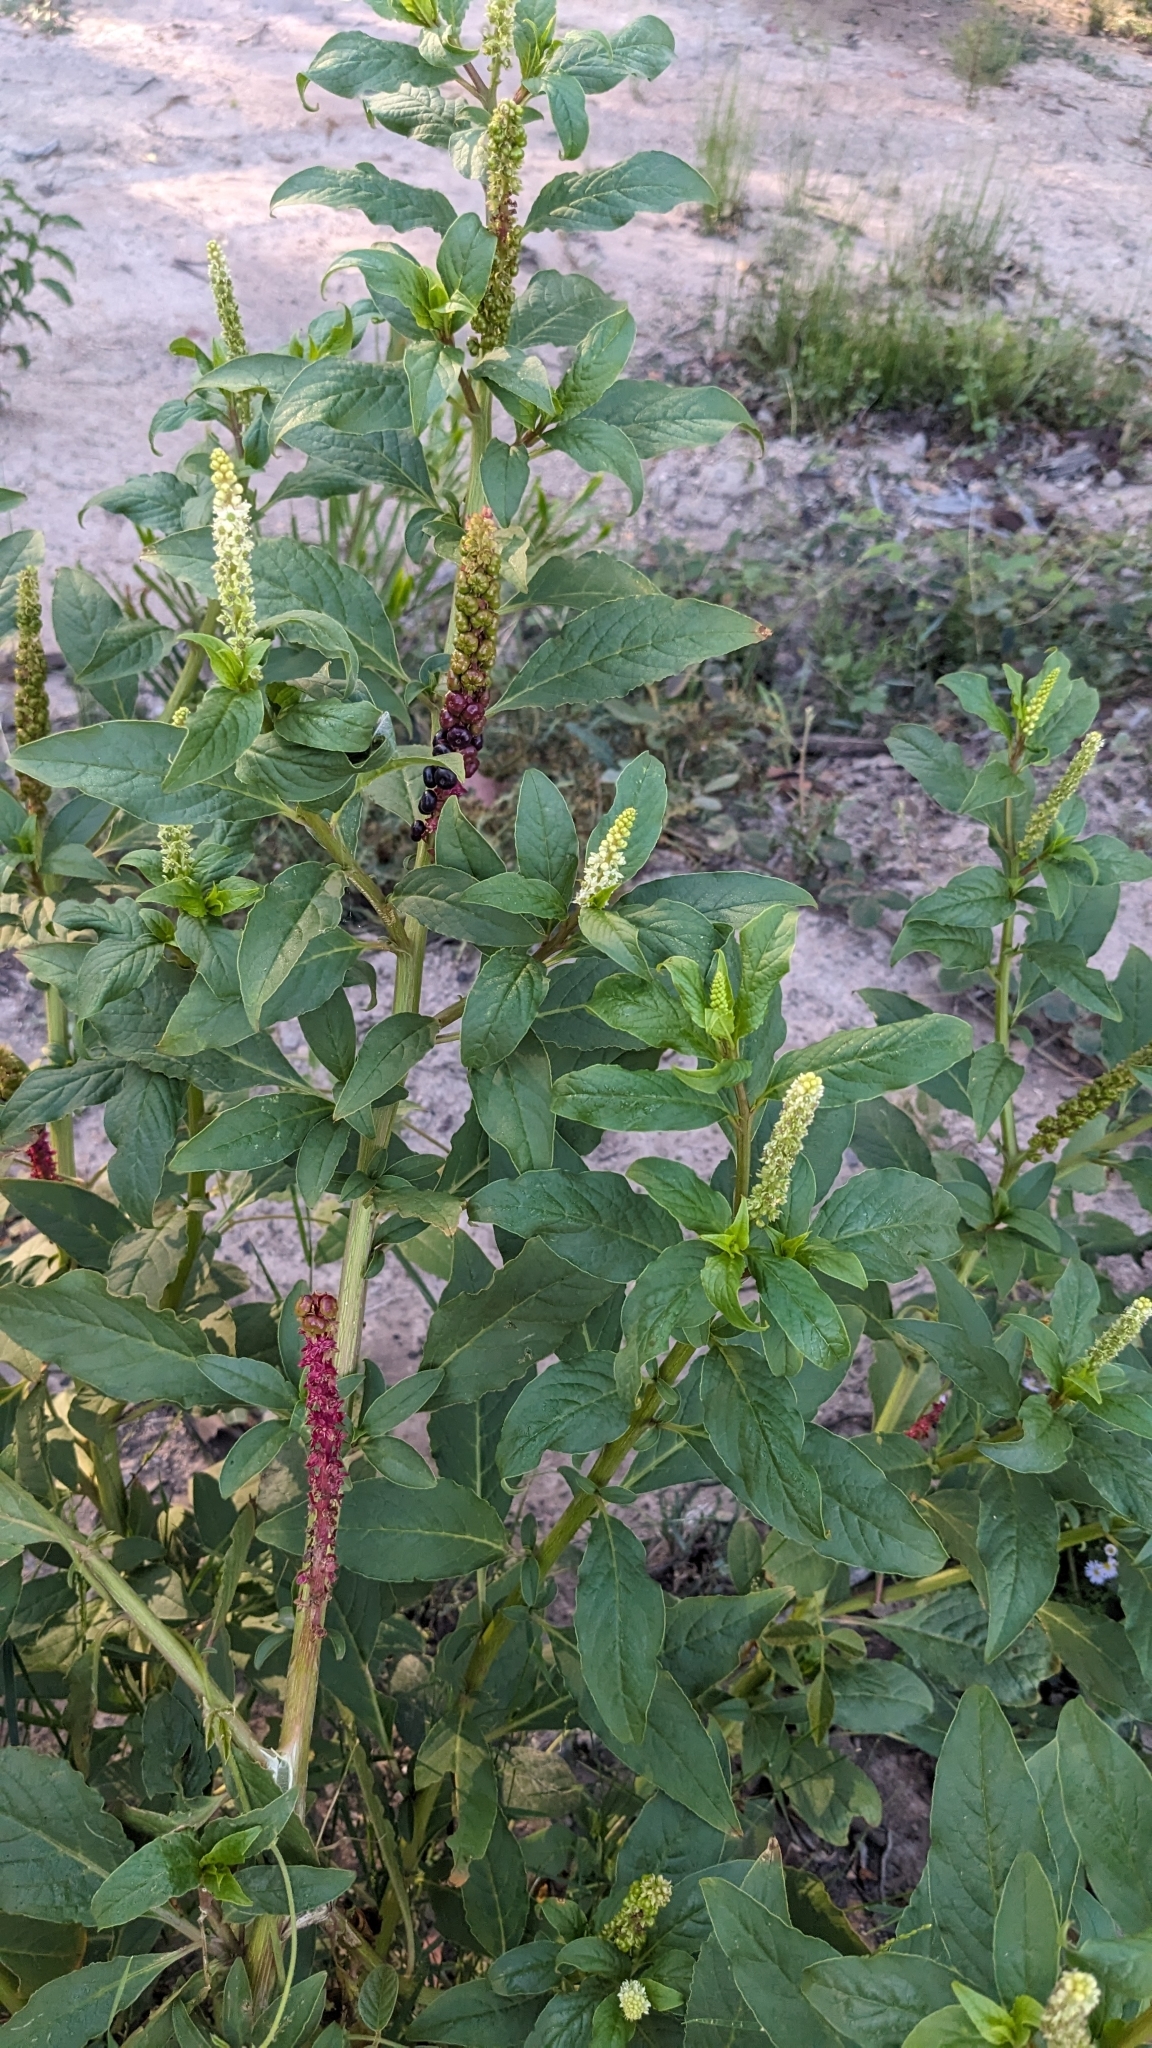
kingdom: Plantae
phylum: Tracheophyta
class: Magnoliopsida
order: Caryophyllales
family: Phytolaccaceae
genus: Phytolacca
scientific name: Phytolacca icosandra
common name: Button pokeweed
